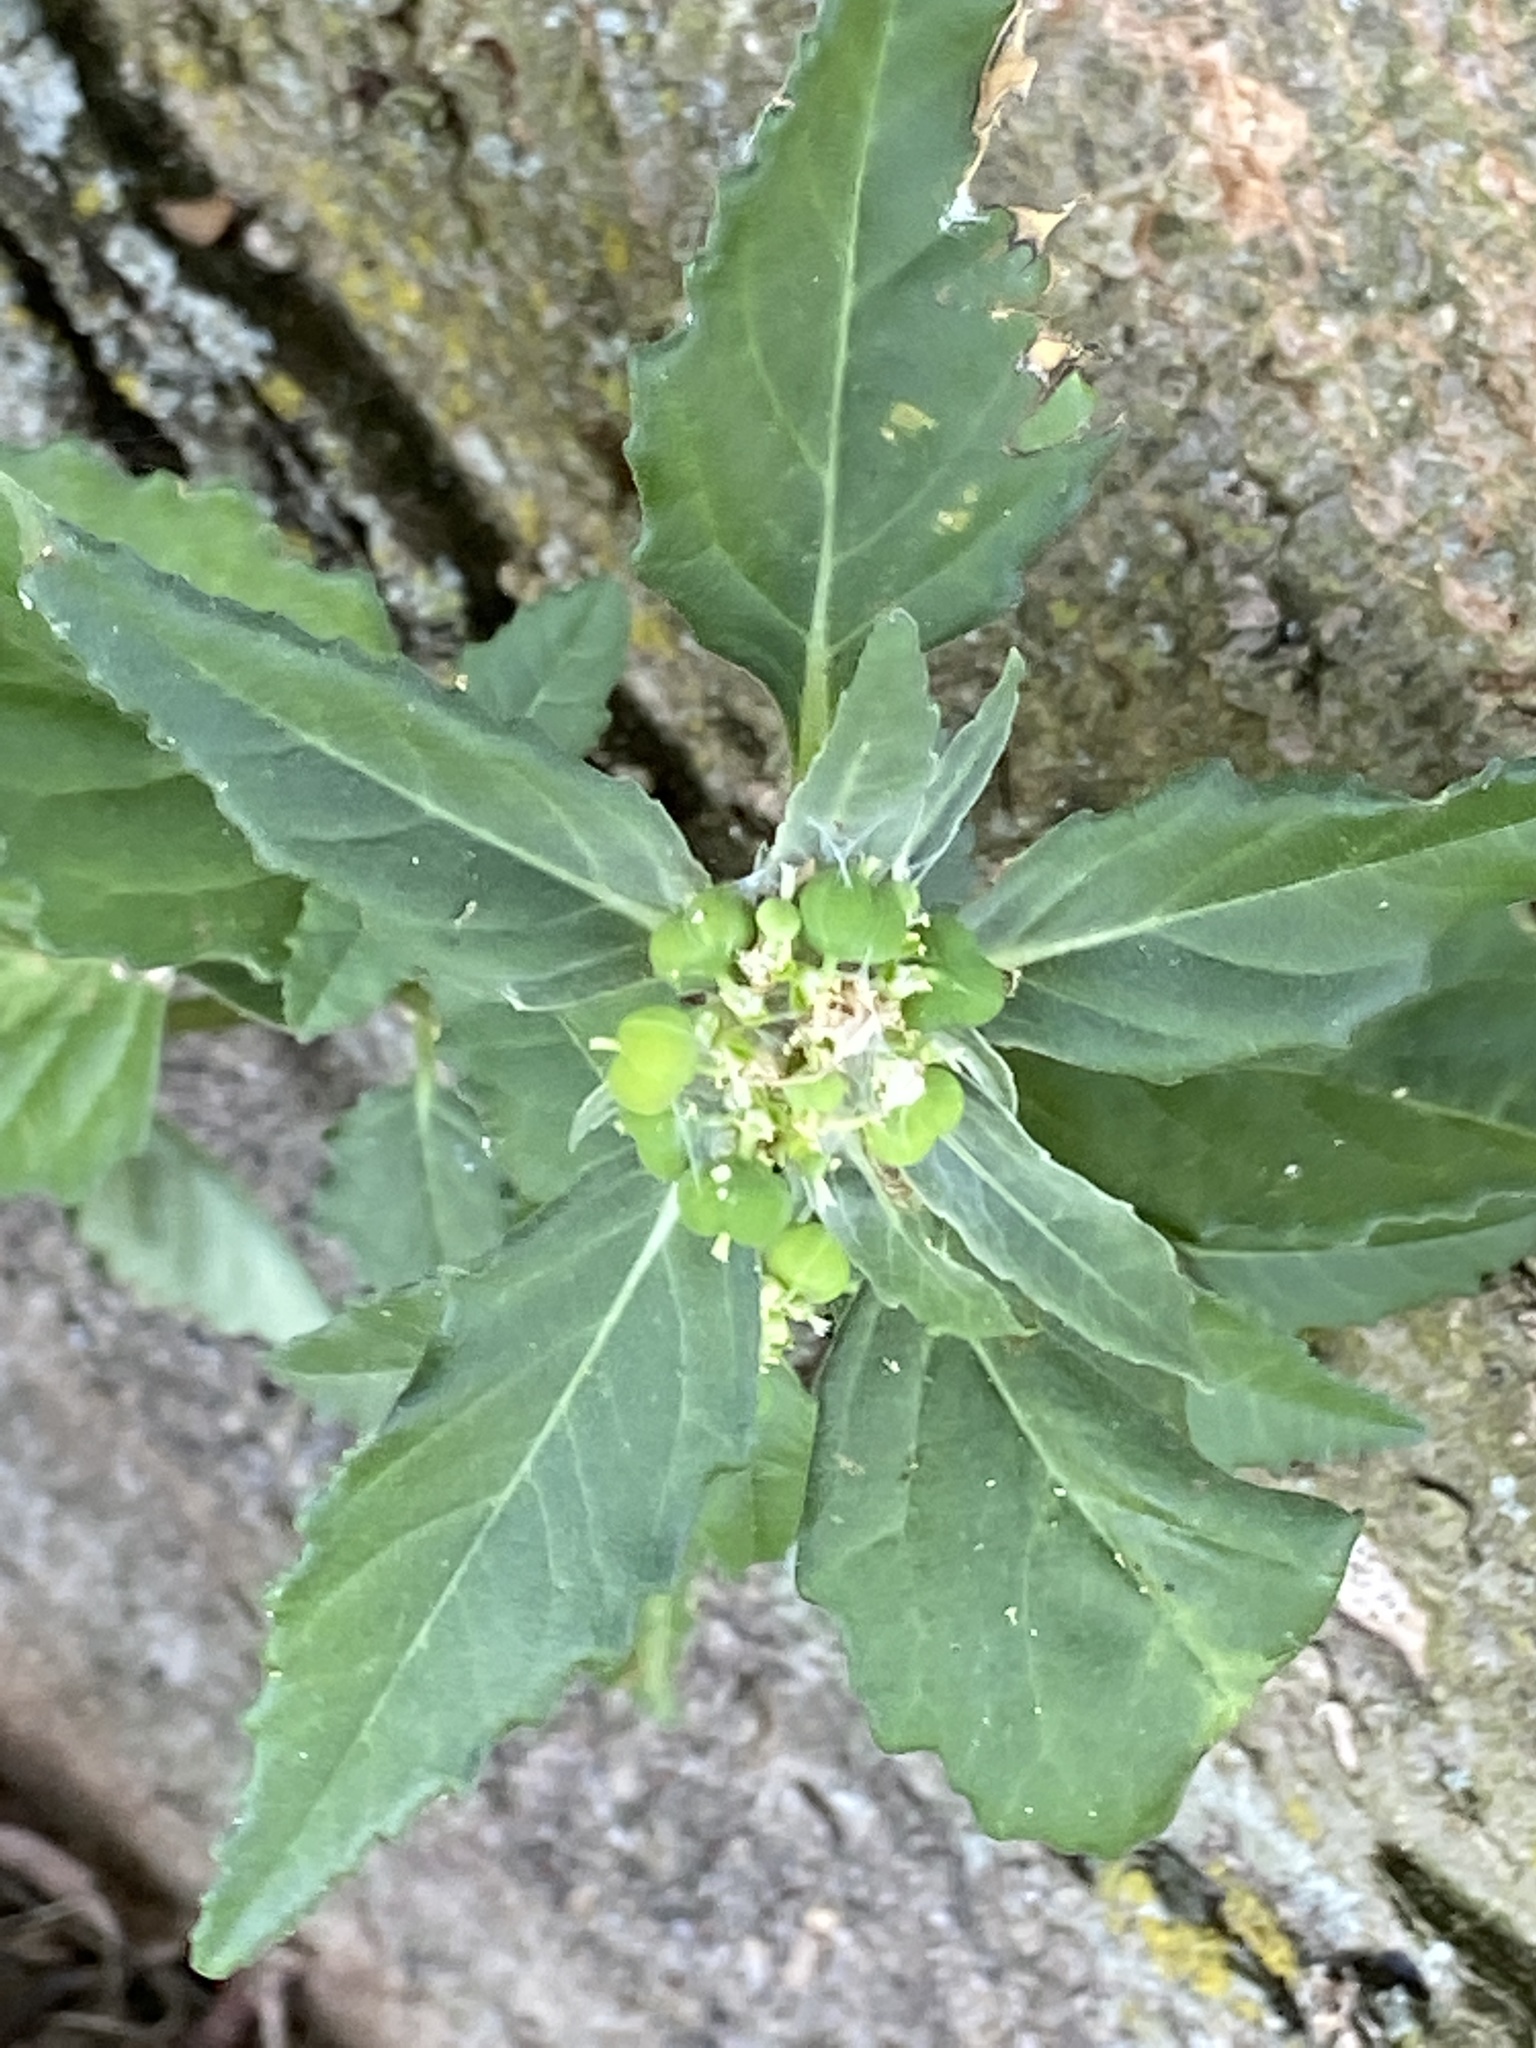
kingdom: Plantae
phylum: Tracheophyta
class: Magnoliopsida
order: Malpighiales
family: Euphorbiaceae
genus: Euphorbia
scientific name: Euphorbia dentata
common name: Dentate spurge
